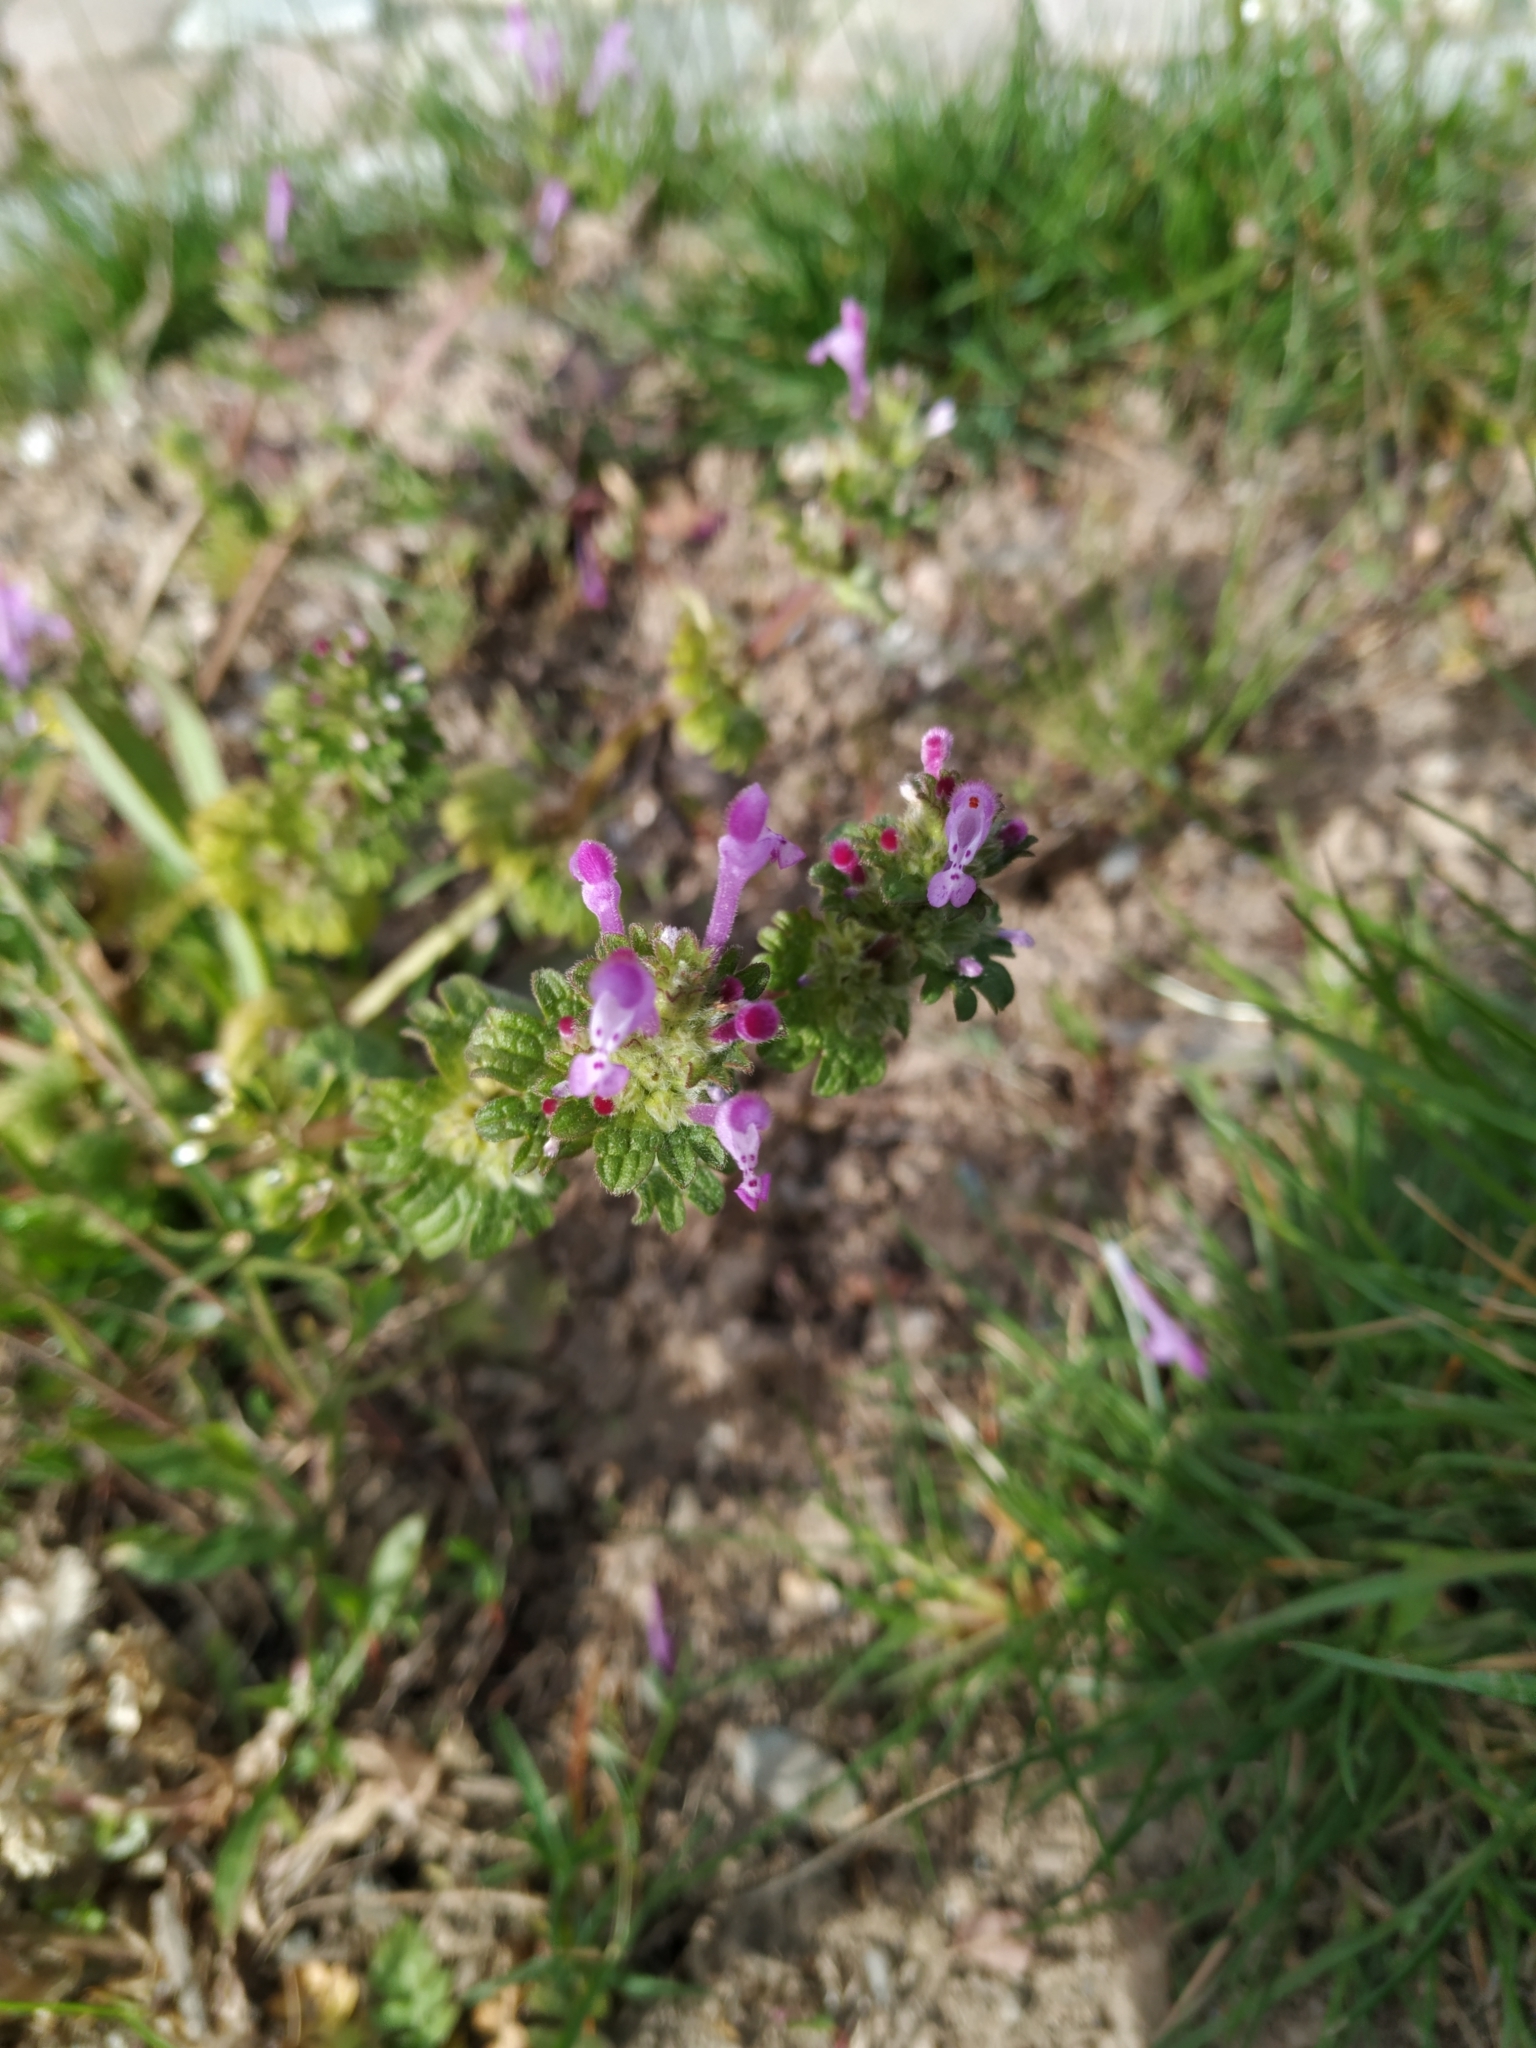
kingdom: Plantae
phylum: Tracheophyta
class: Magnoliopsida
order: Lamiales
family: Lamiaceae
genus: Lamium
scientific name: Lamium amplexicaule
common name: Henbit dead-nettle
